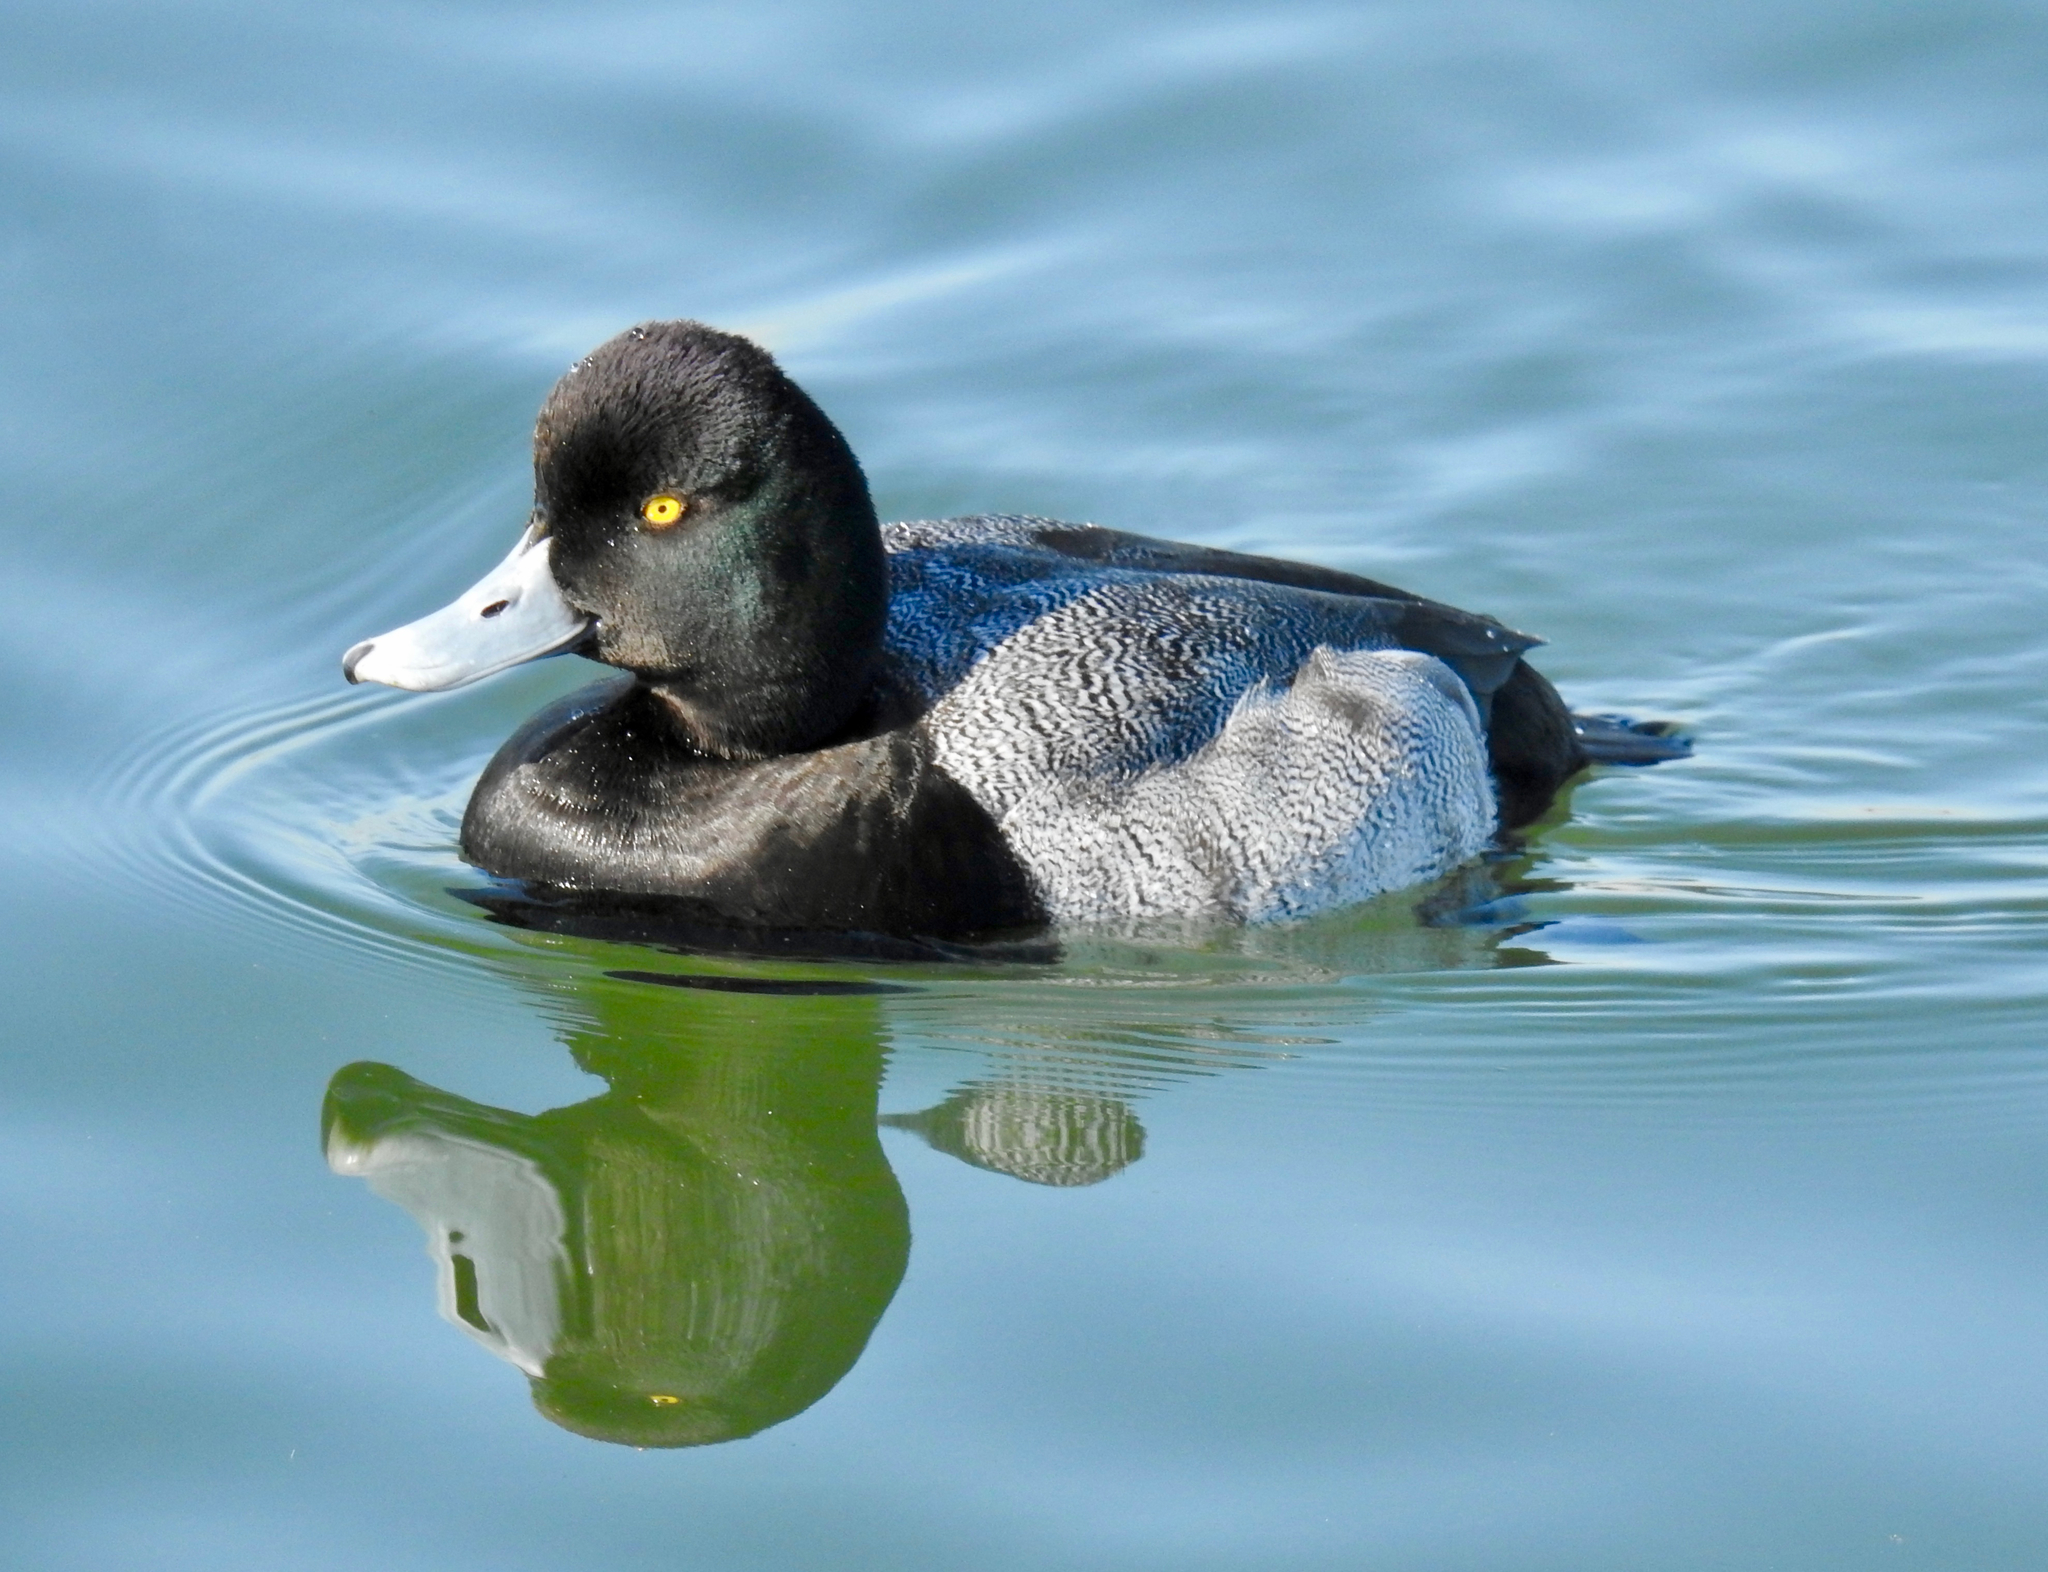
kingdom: Animalia
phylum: Chordata
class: Aves
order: Anseriformes
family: Anatidae
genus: Aythya
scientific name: Aythya affinis
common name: Lesser scaup
